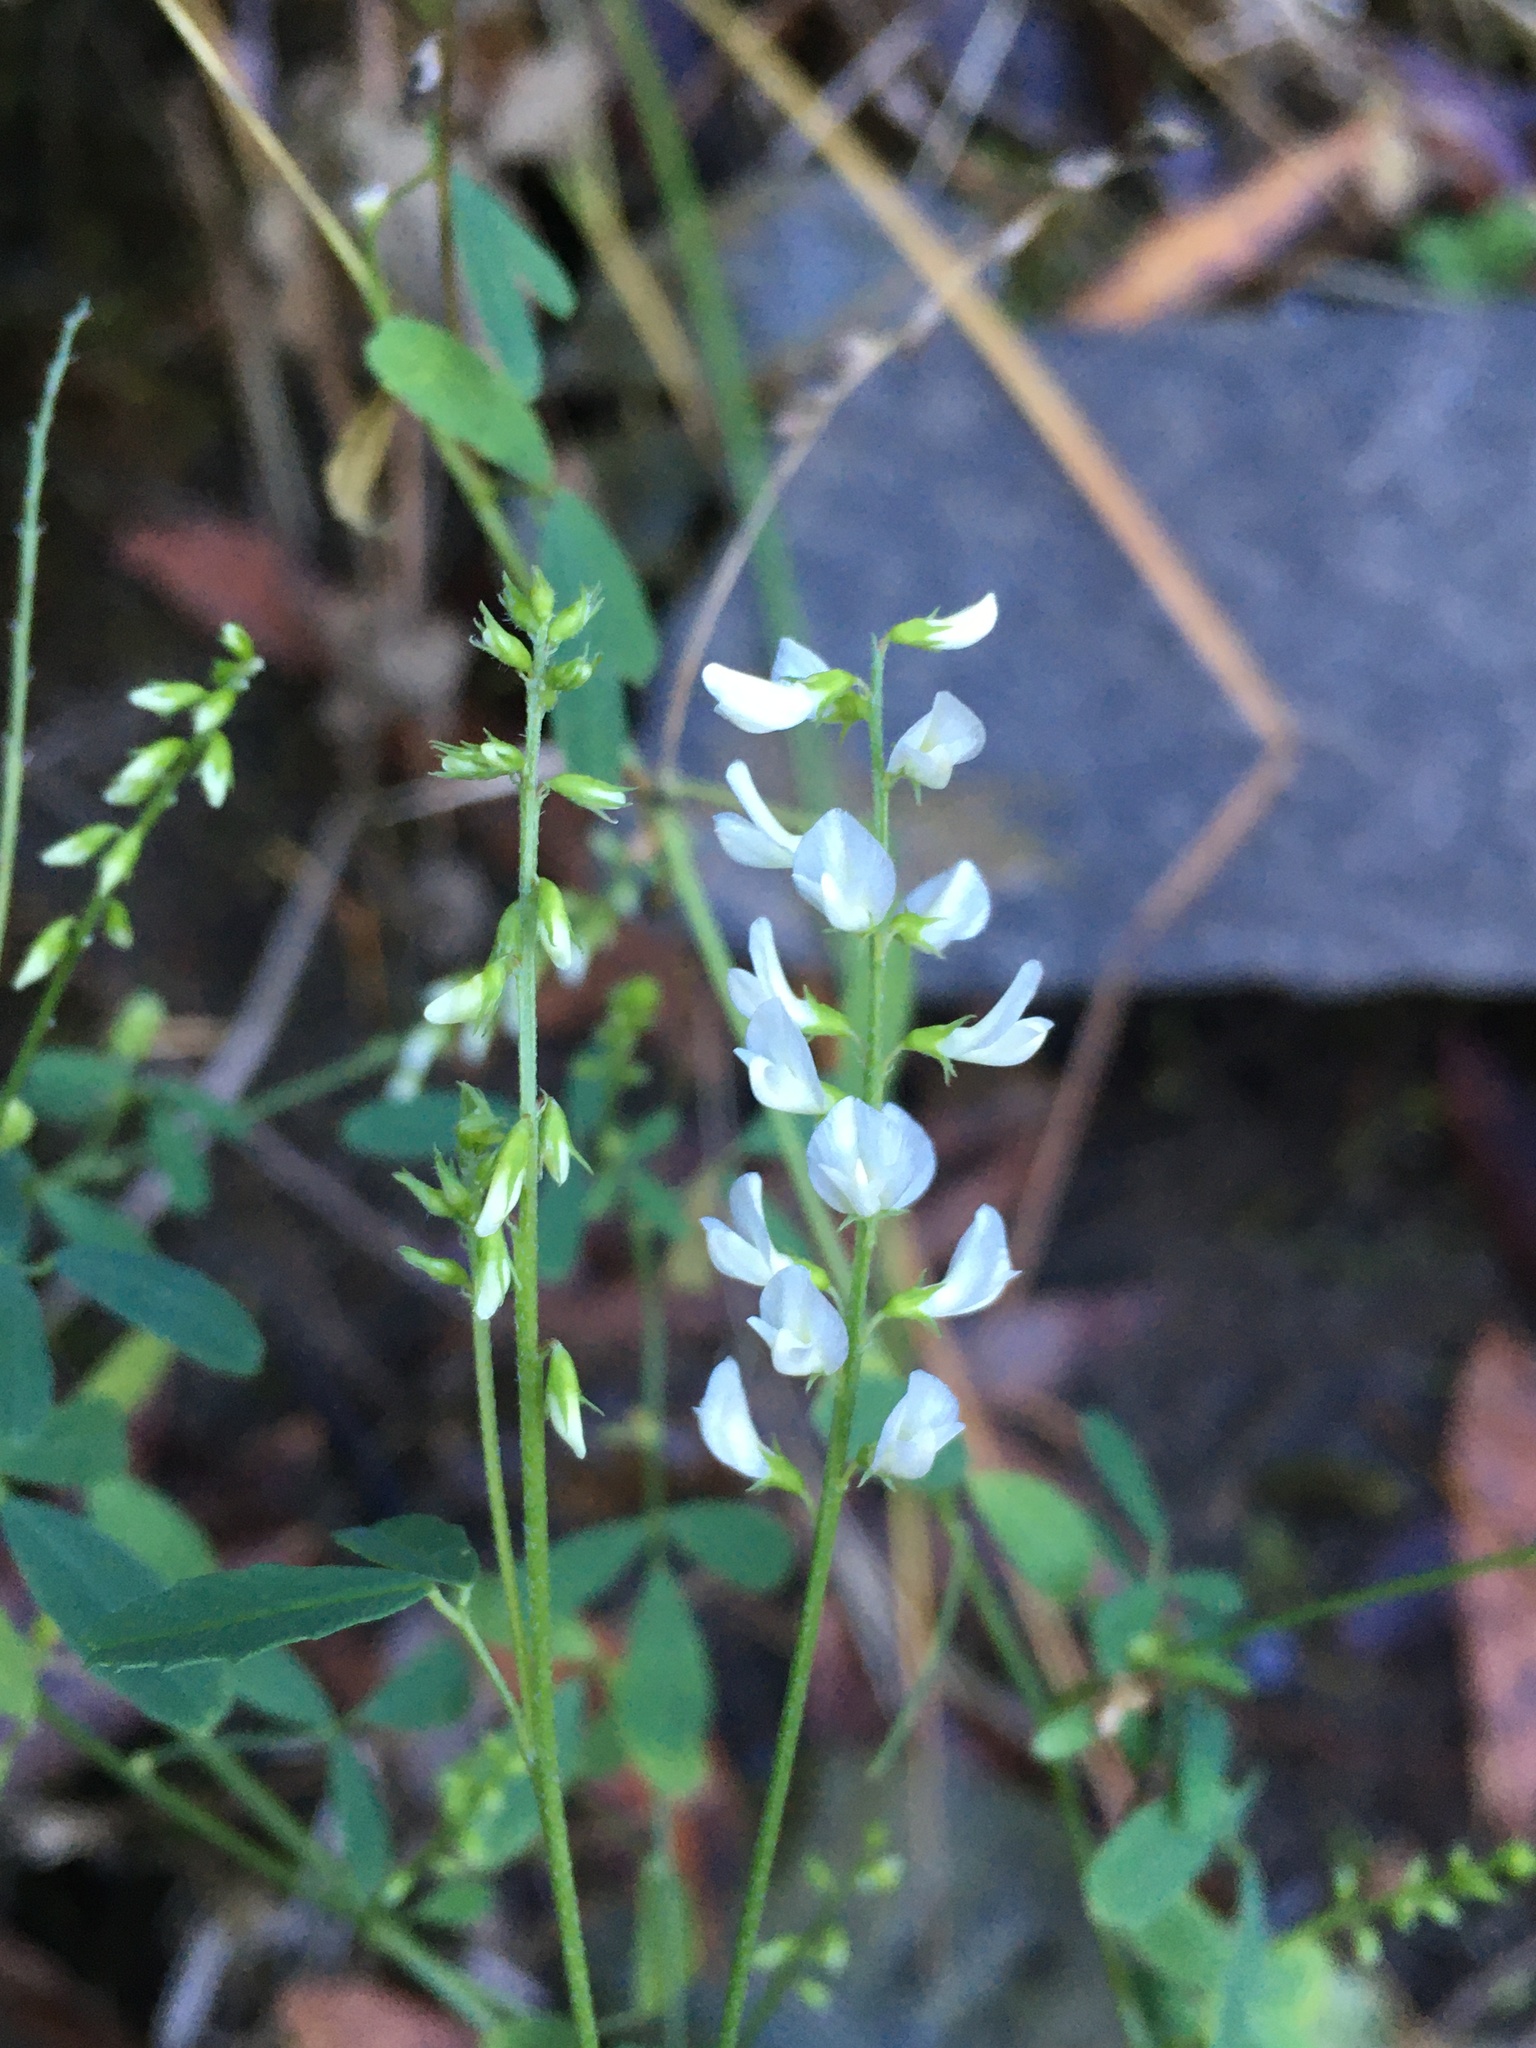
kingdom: Plantae
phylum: Tracheophyta
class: Magnoliopsida
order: Fabales
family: Fabaceae
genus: Melilotus
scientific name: Melilotus albus
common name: White melilot
